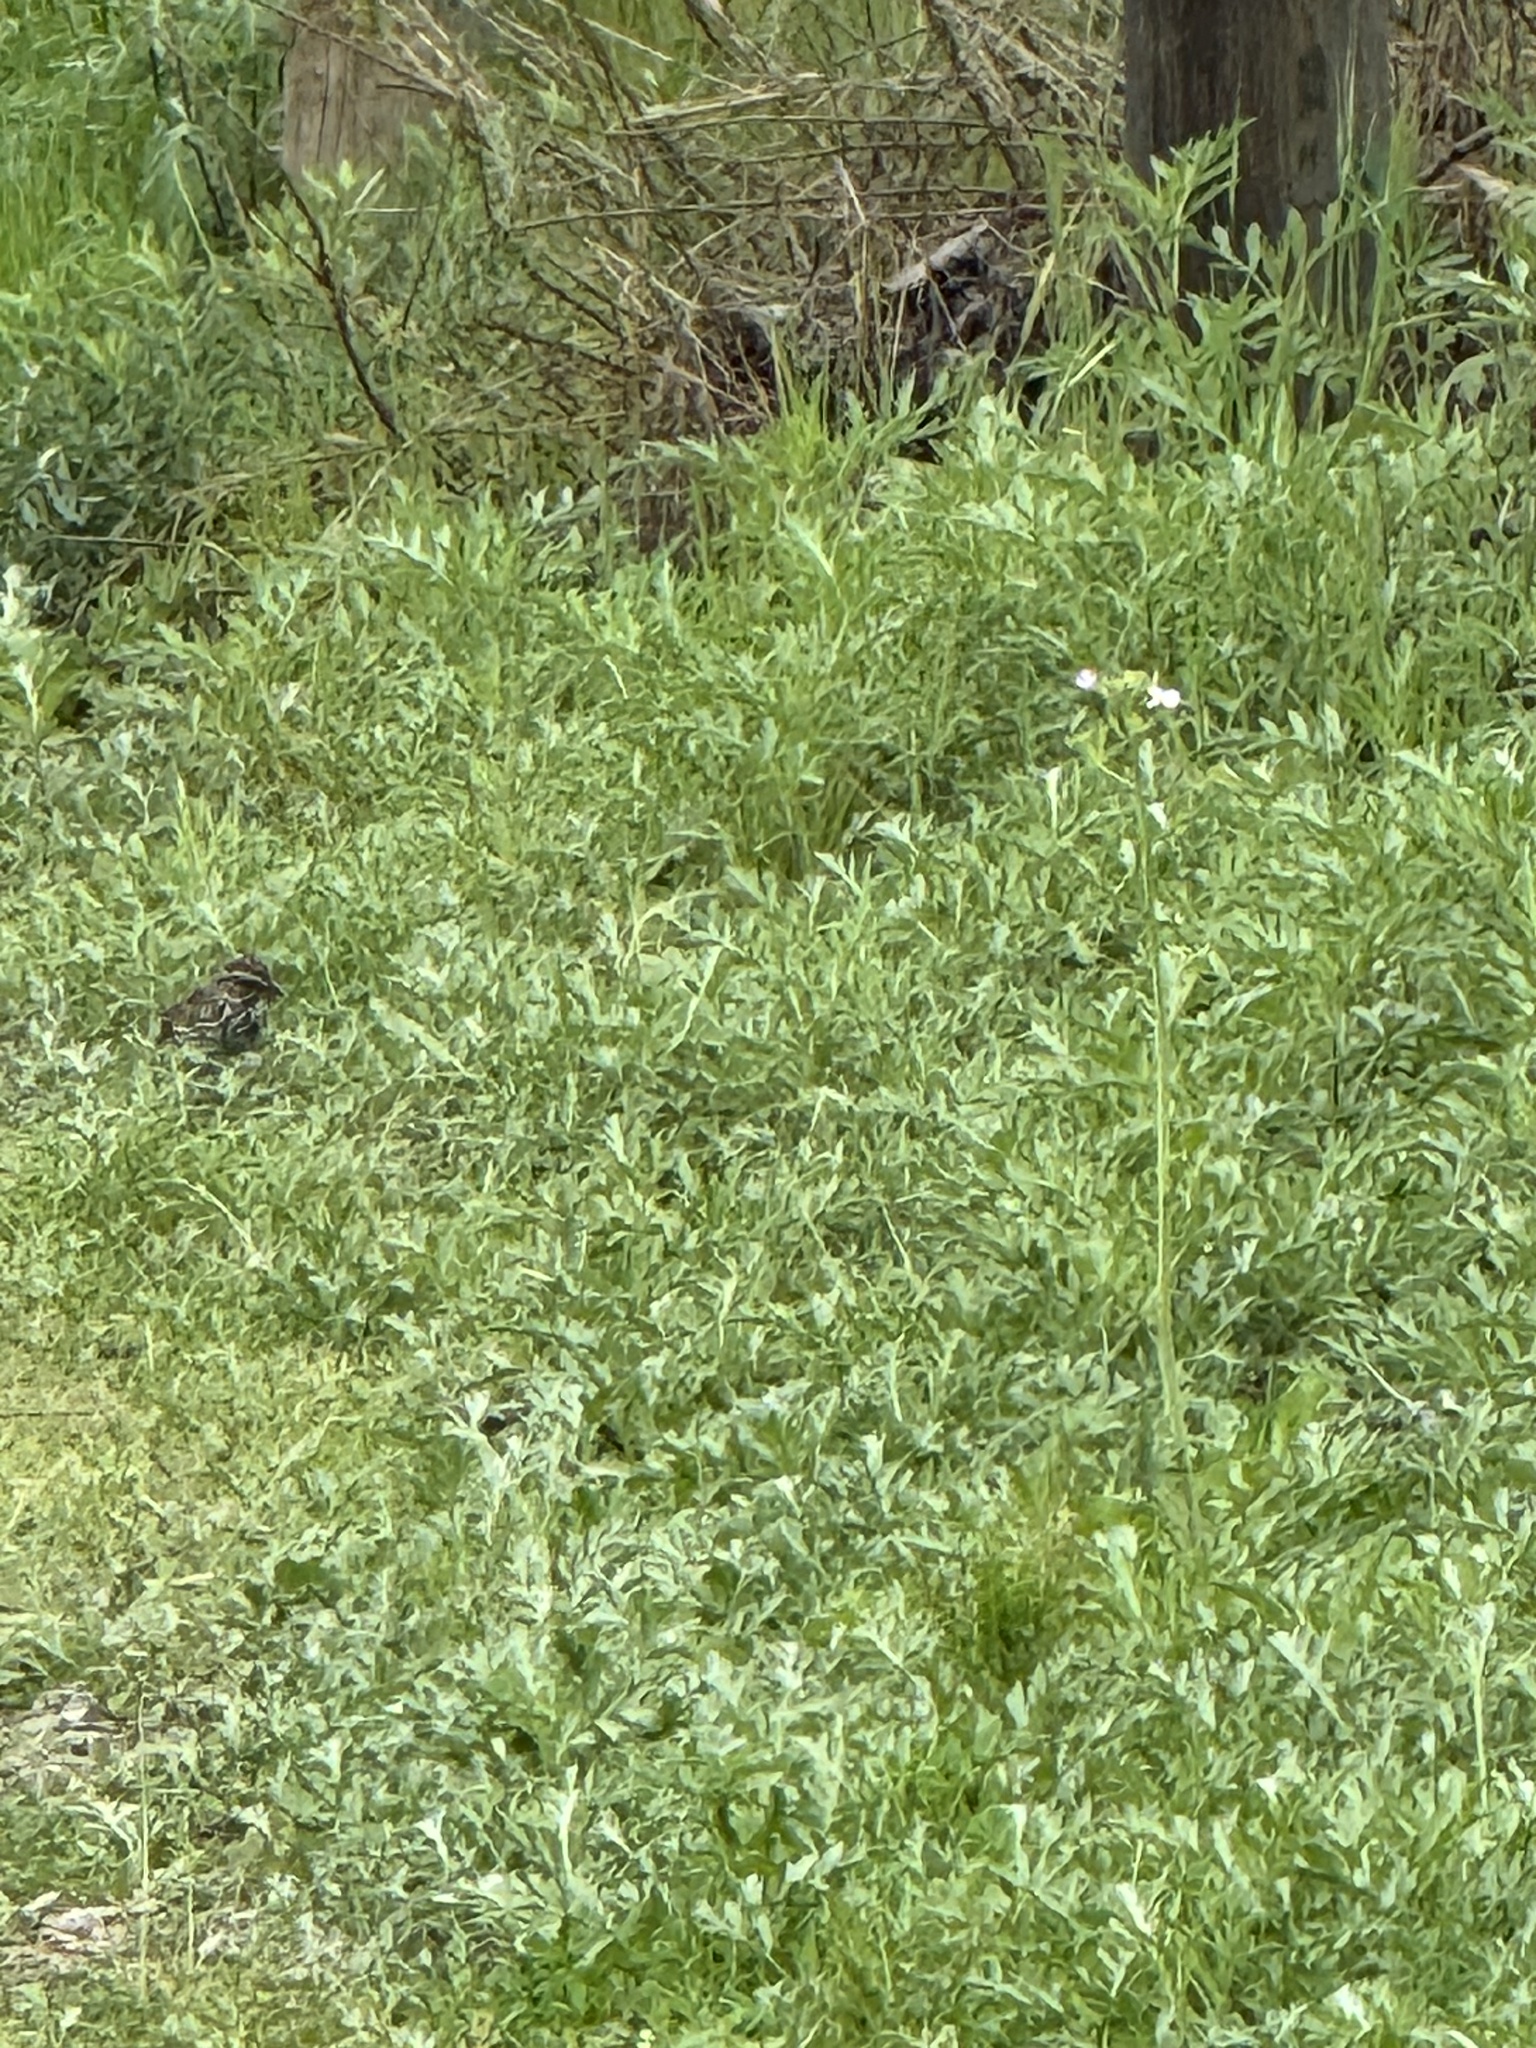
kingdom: Animalia
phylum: Chordata
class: Aves
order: Passeriformes
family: Passerellidae
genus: Melospiza
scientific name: Melospiza melodia
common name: Song sparrow
